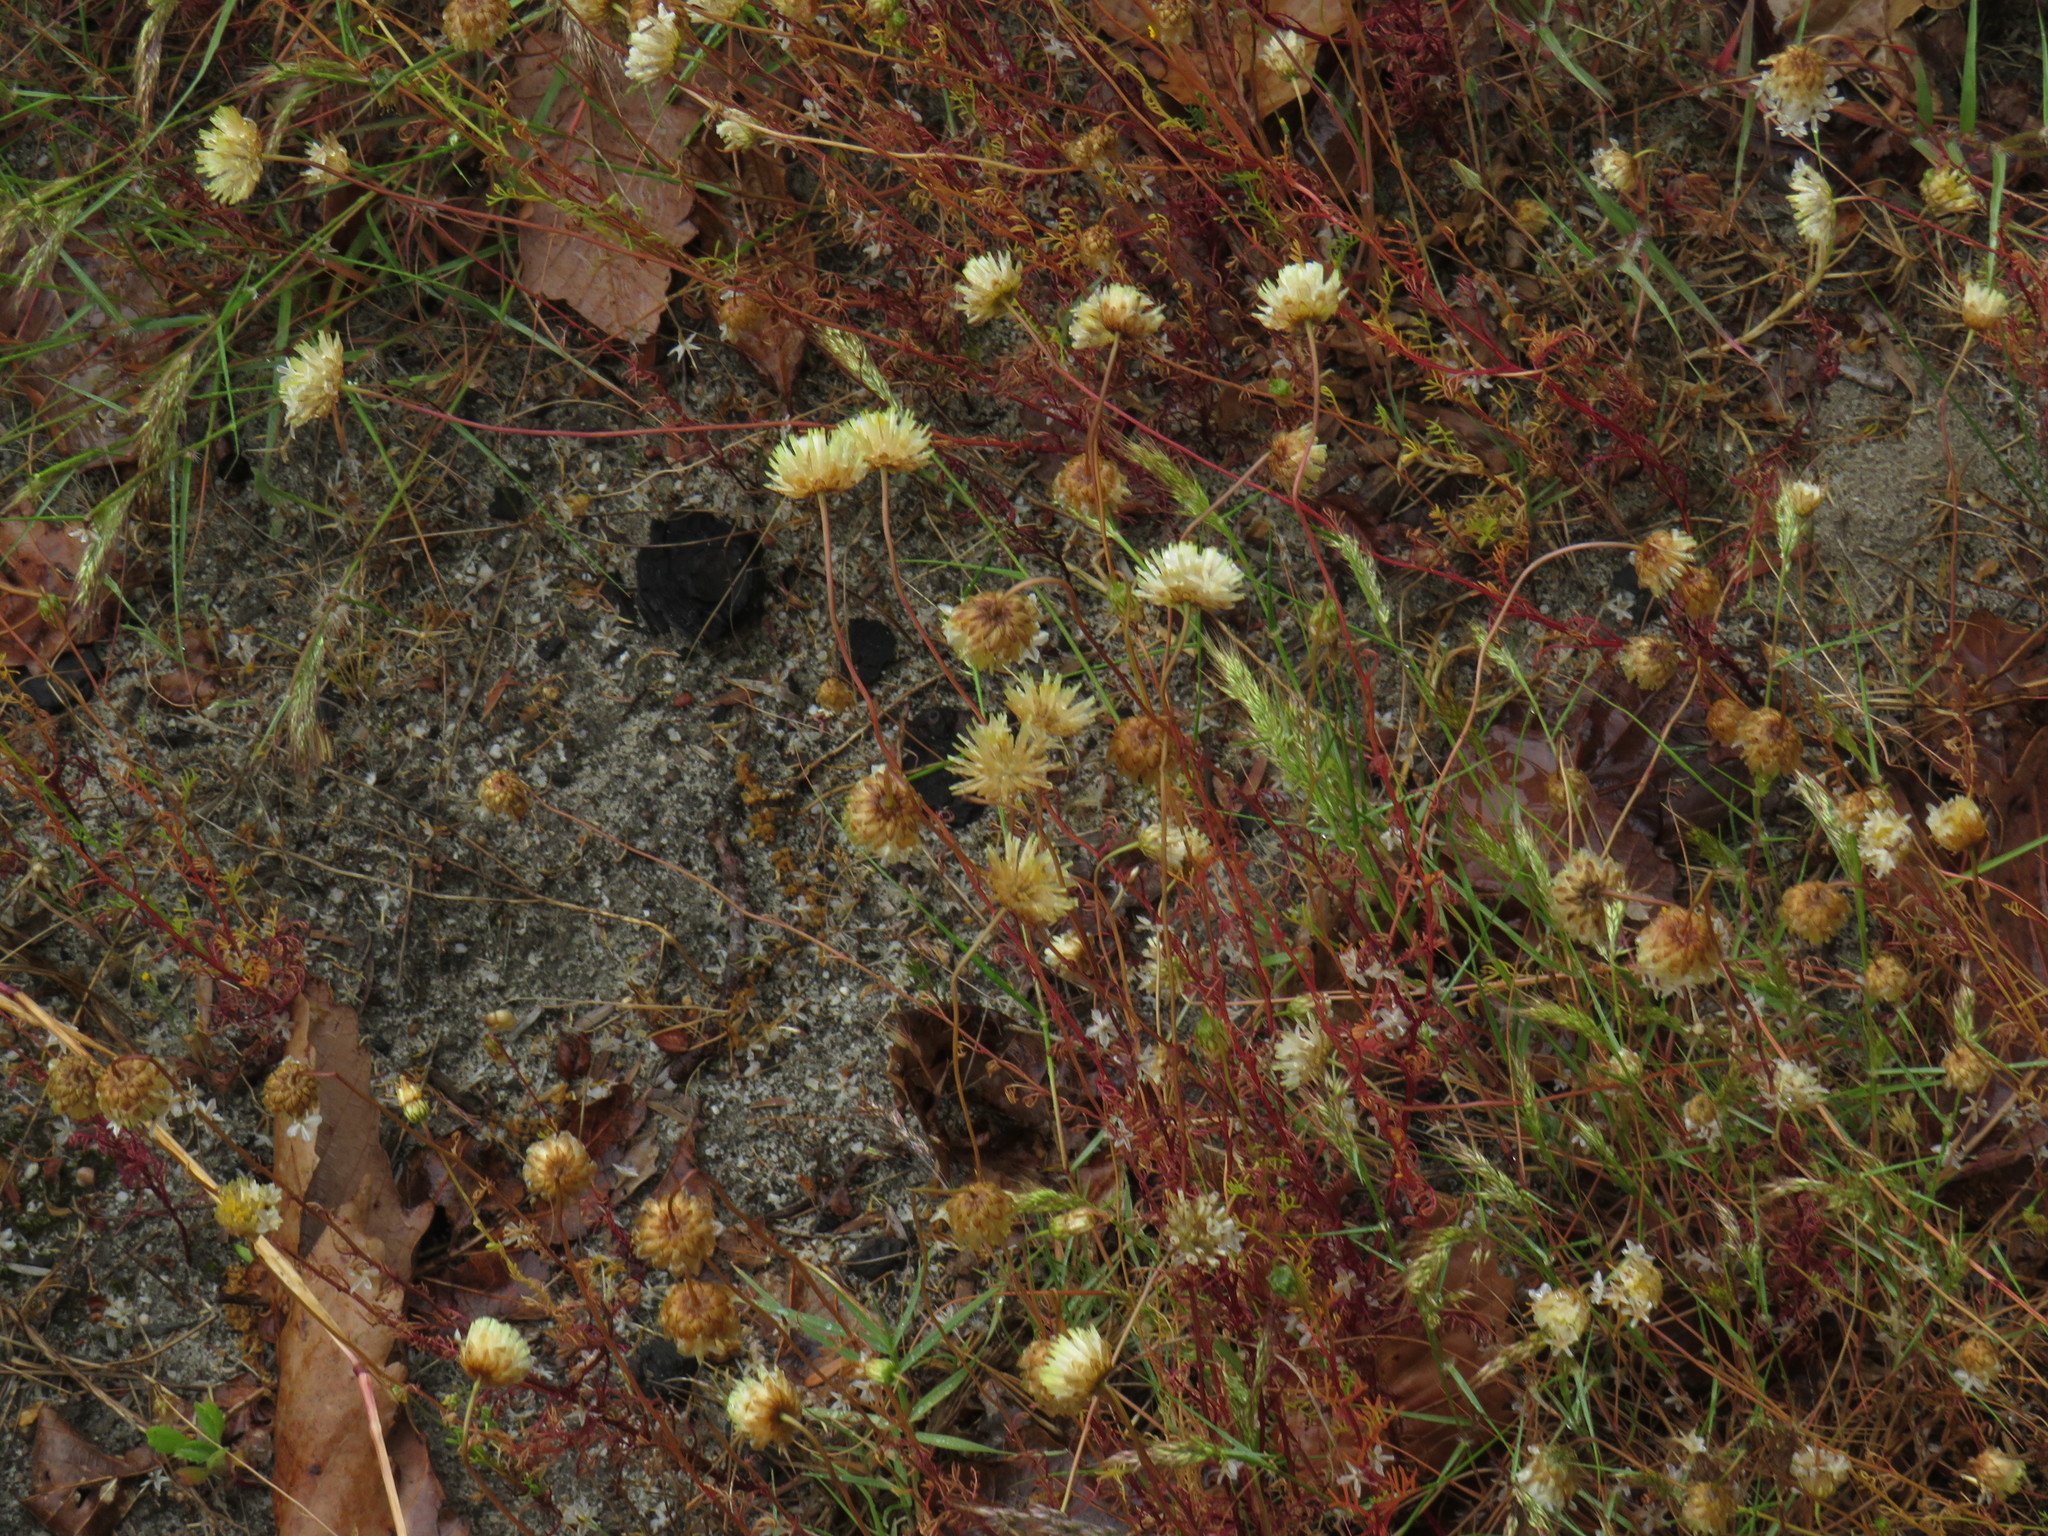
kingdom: Plantae
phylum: Tracheophyta
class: Magnoliopsida
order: Asterales
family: Asteraceae
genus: Ursinia
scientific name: Ursinia anthemoides
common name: Ursinia
